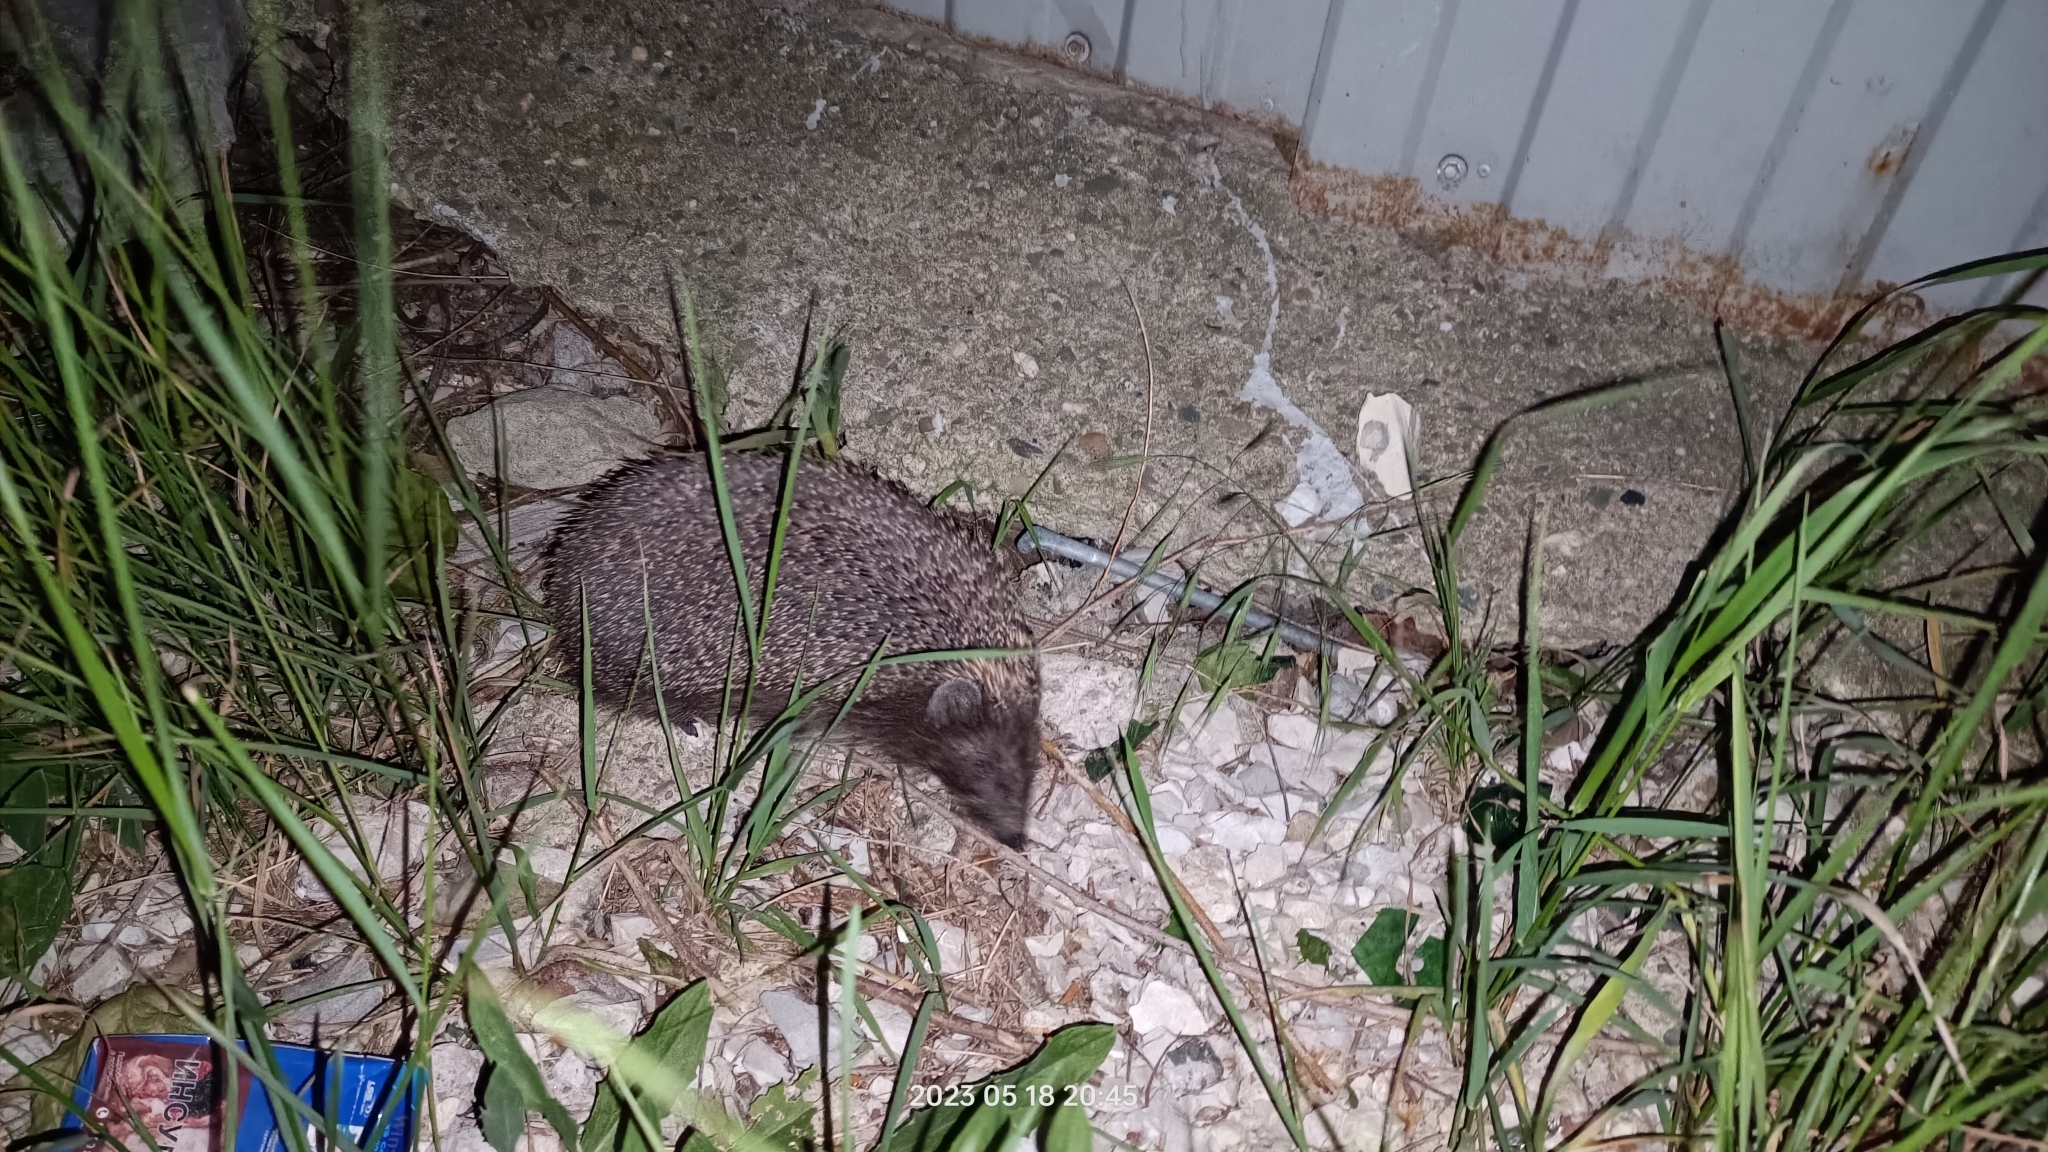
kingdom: Animalia
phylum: Chordata
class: Mammalia
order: Erinaceomorpha
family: Erinaceidae
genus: Erinaceus
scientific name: Erinaceus roumanicus
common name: Northern white-breasted hedgehog
